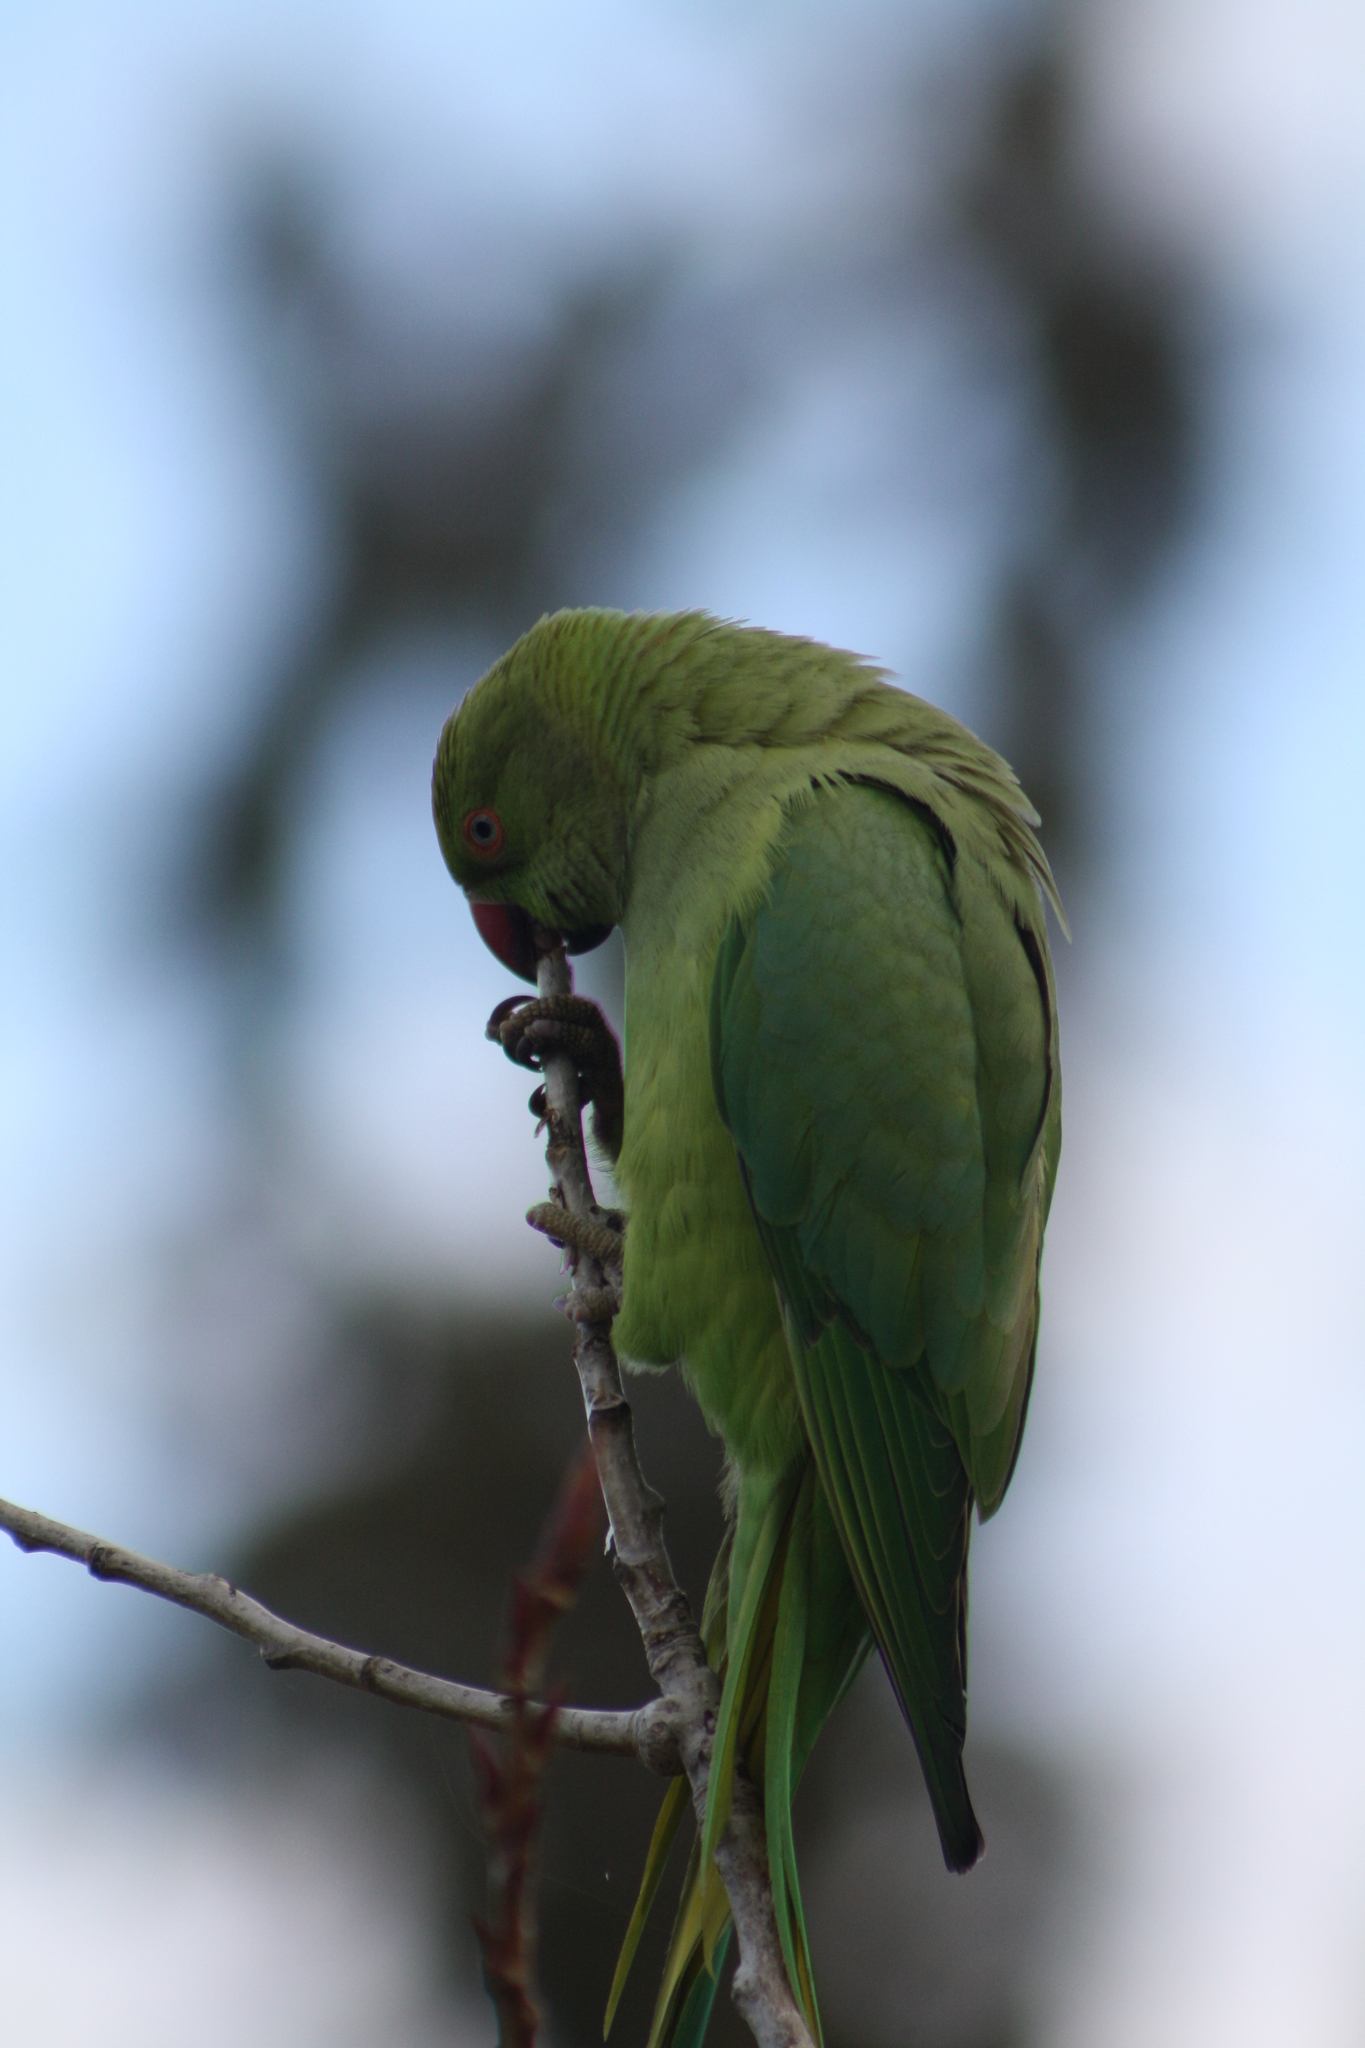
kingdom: Animalia
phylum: Chordata
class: Aves
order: Psittaciformes
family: Psittacidae
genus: Psittacula
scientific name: Psittacula krameri
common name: Rose-ringed parakeet
